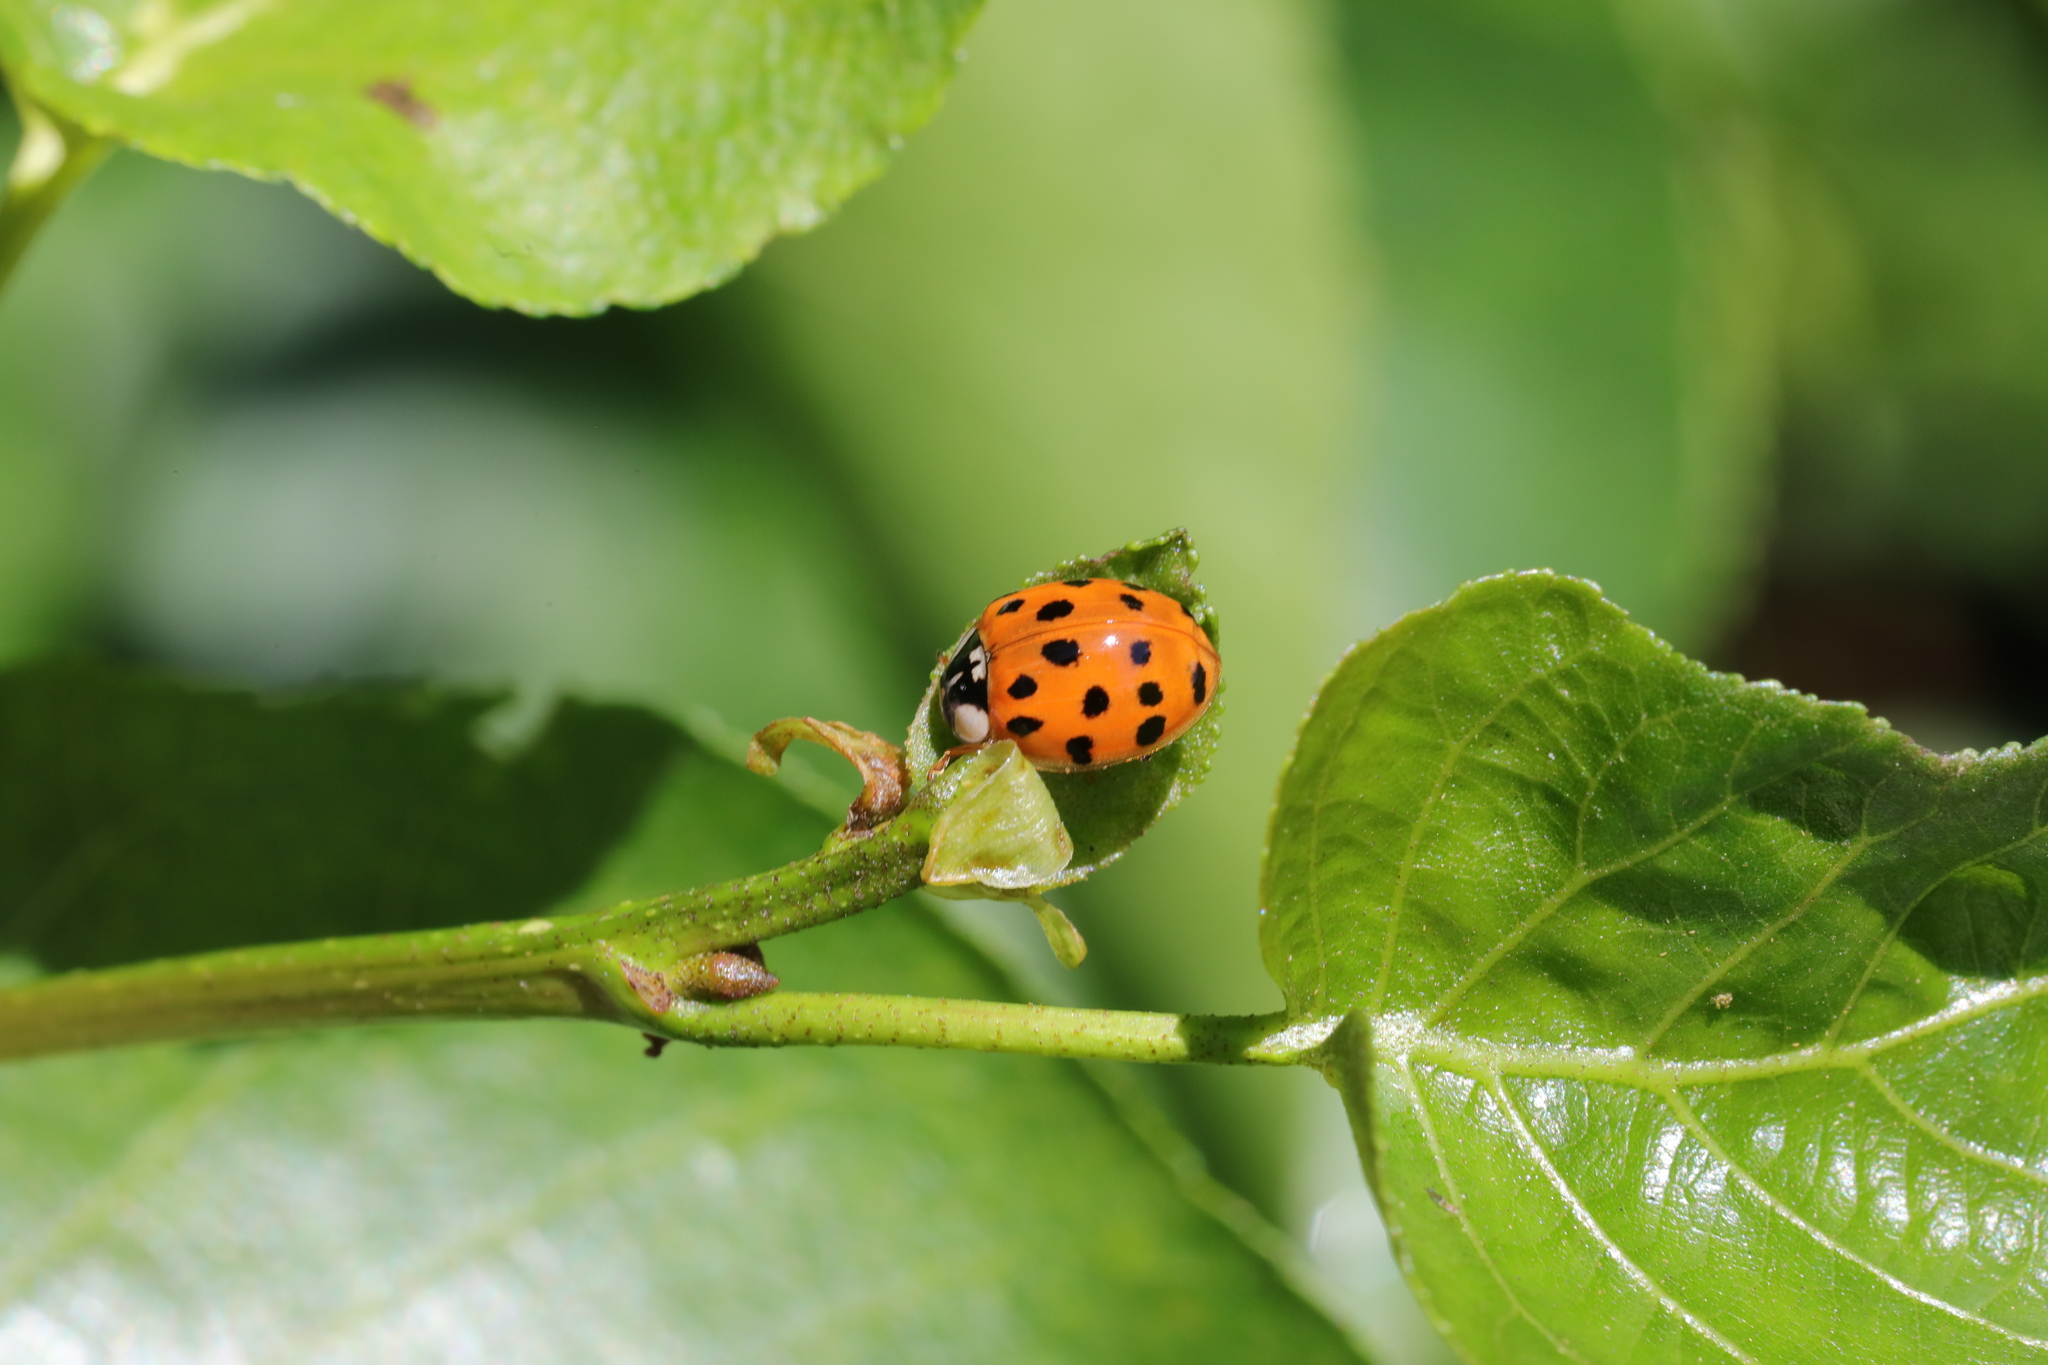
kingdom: Animalia
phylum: Arthropoda
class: Insecta
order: Coleoptera
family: Coccinellidae
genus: Harmonia
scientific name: Harmonia axyridis
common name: Harlequin ladybird
